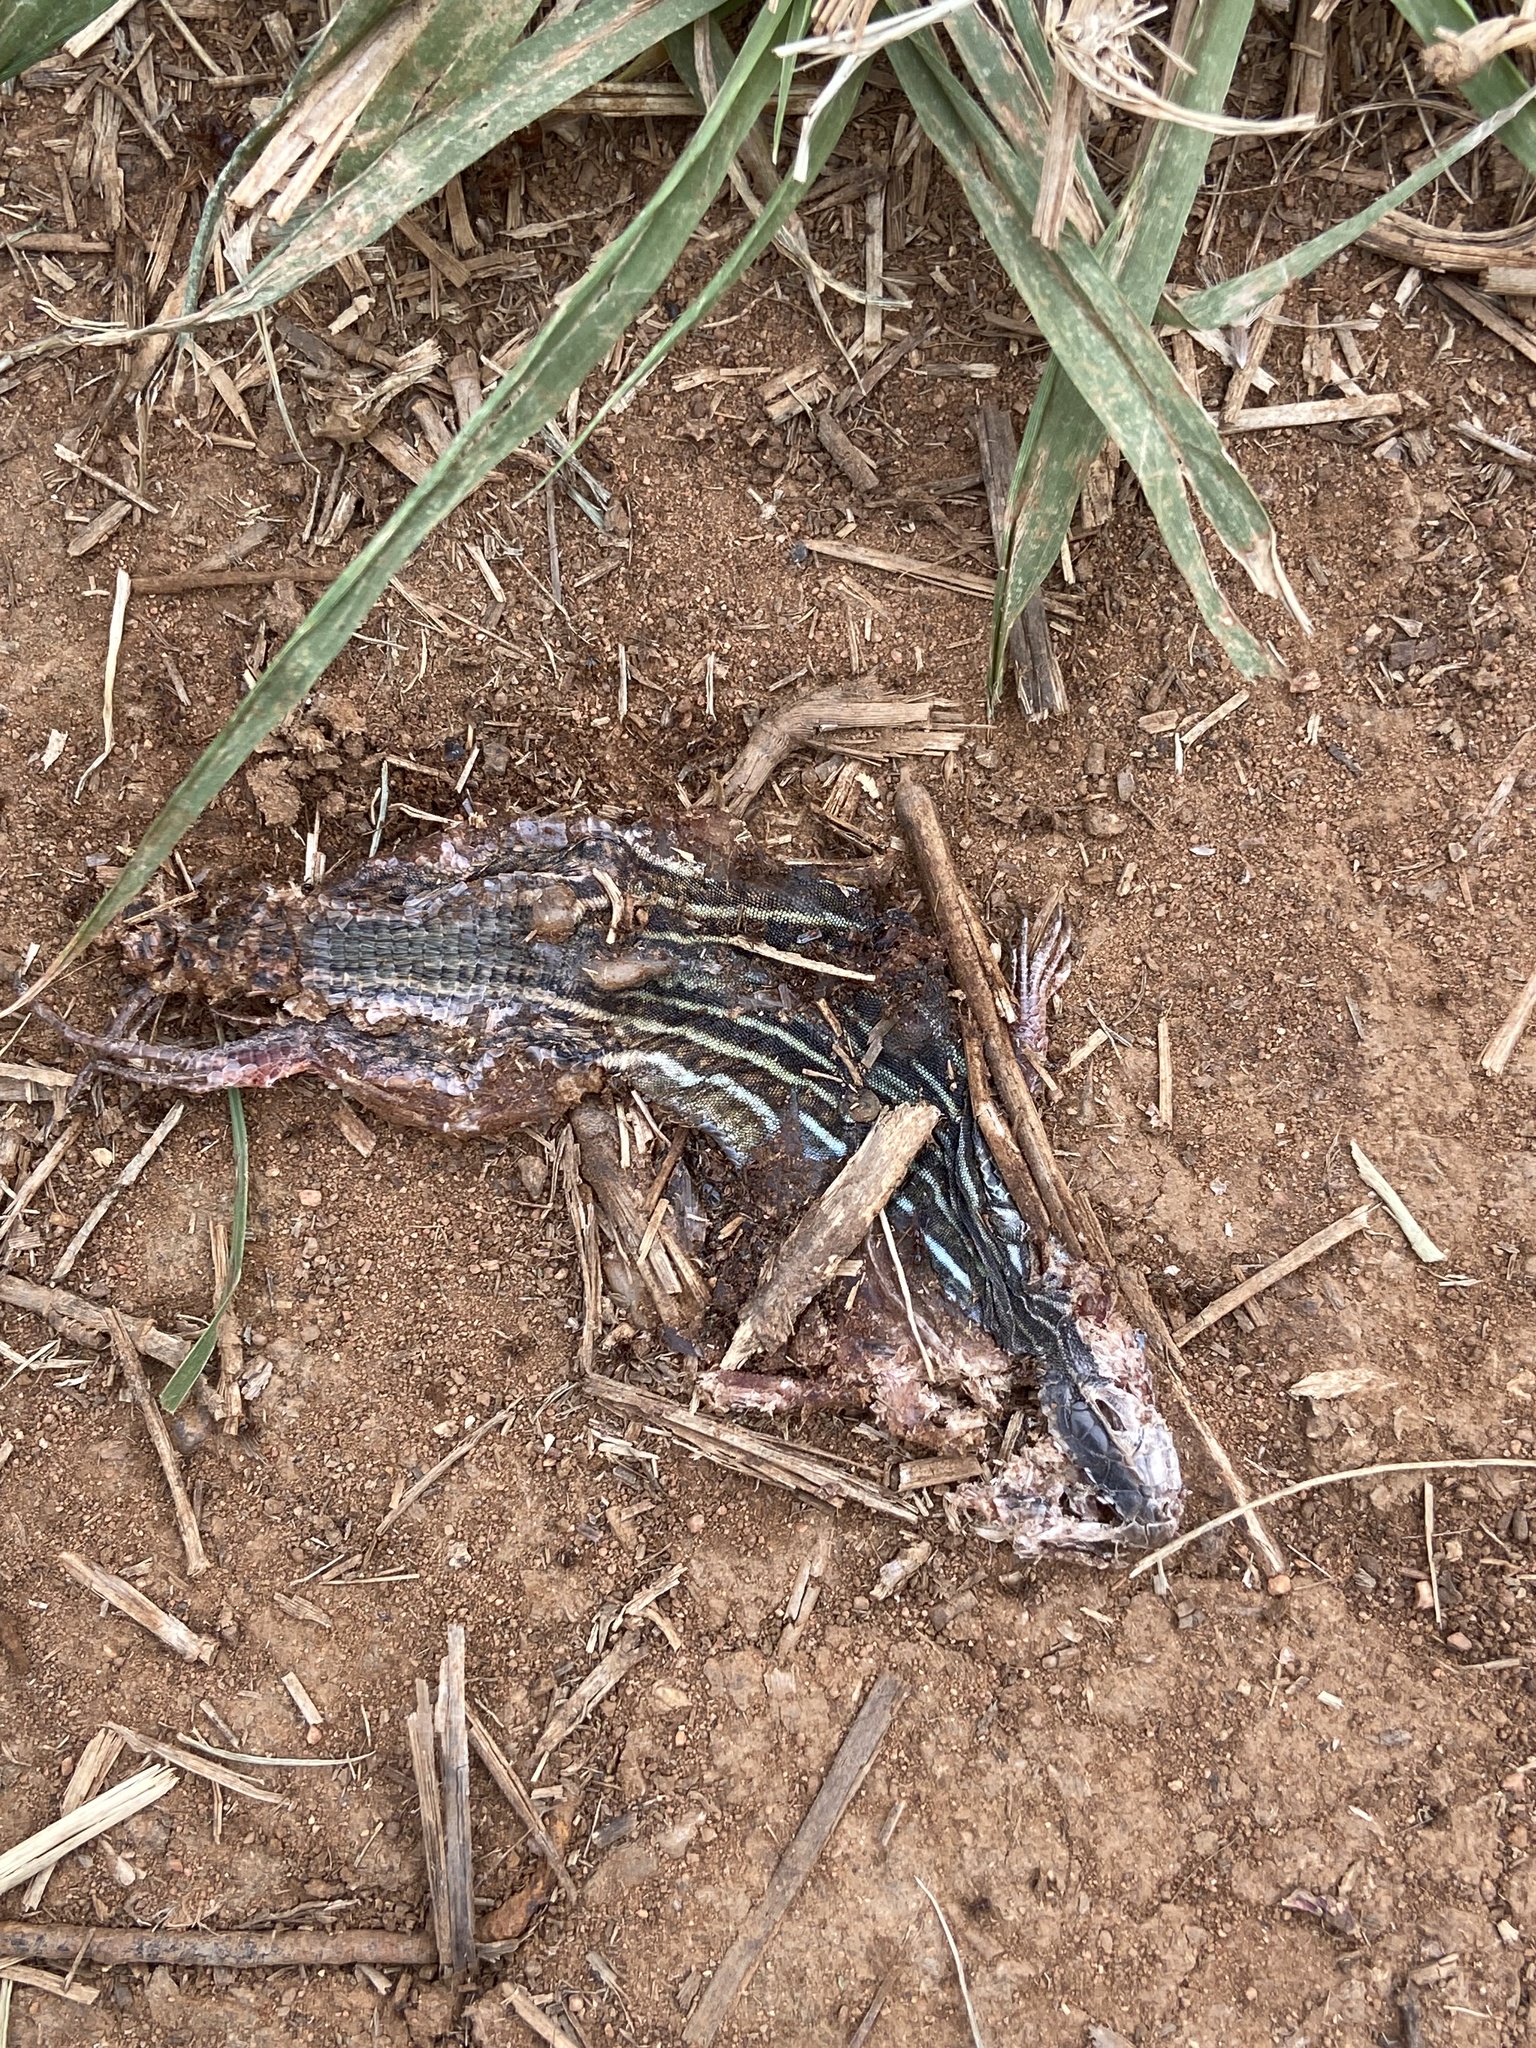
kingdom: Animalia
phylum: Chordata
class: Squamata
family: Teiidae
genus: Aspidoscelis
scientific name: Aspidoscelis gularis
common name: Eastern spotted whiptail
